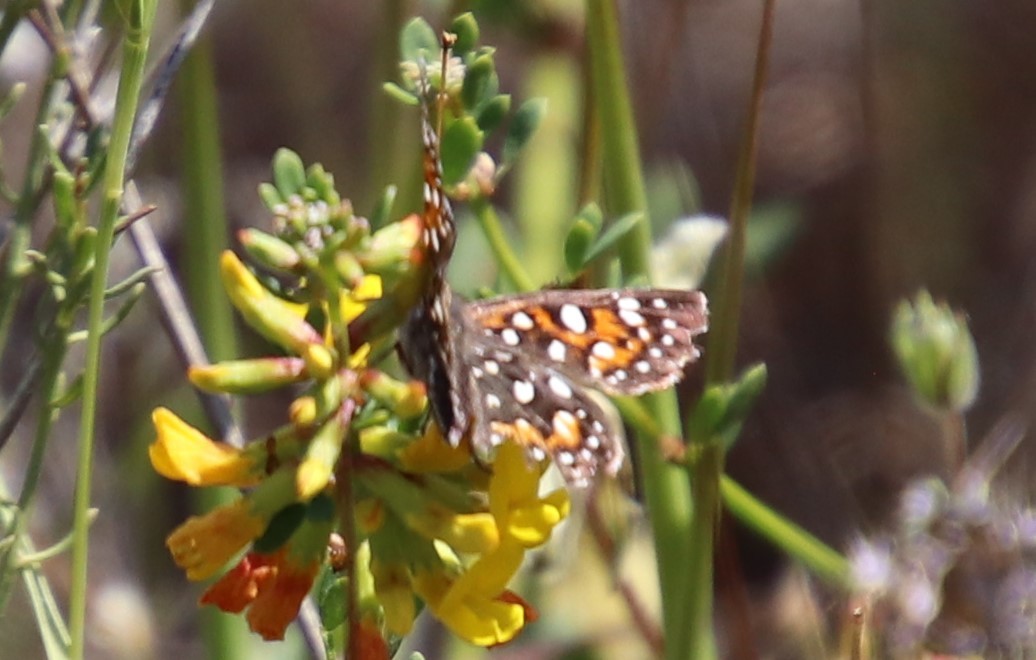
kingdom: Animalia
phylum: Arthropoda
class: Insecta
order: Lepidoptera
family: Riodinidae
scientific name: Riodinidae
